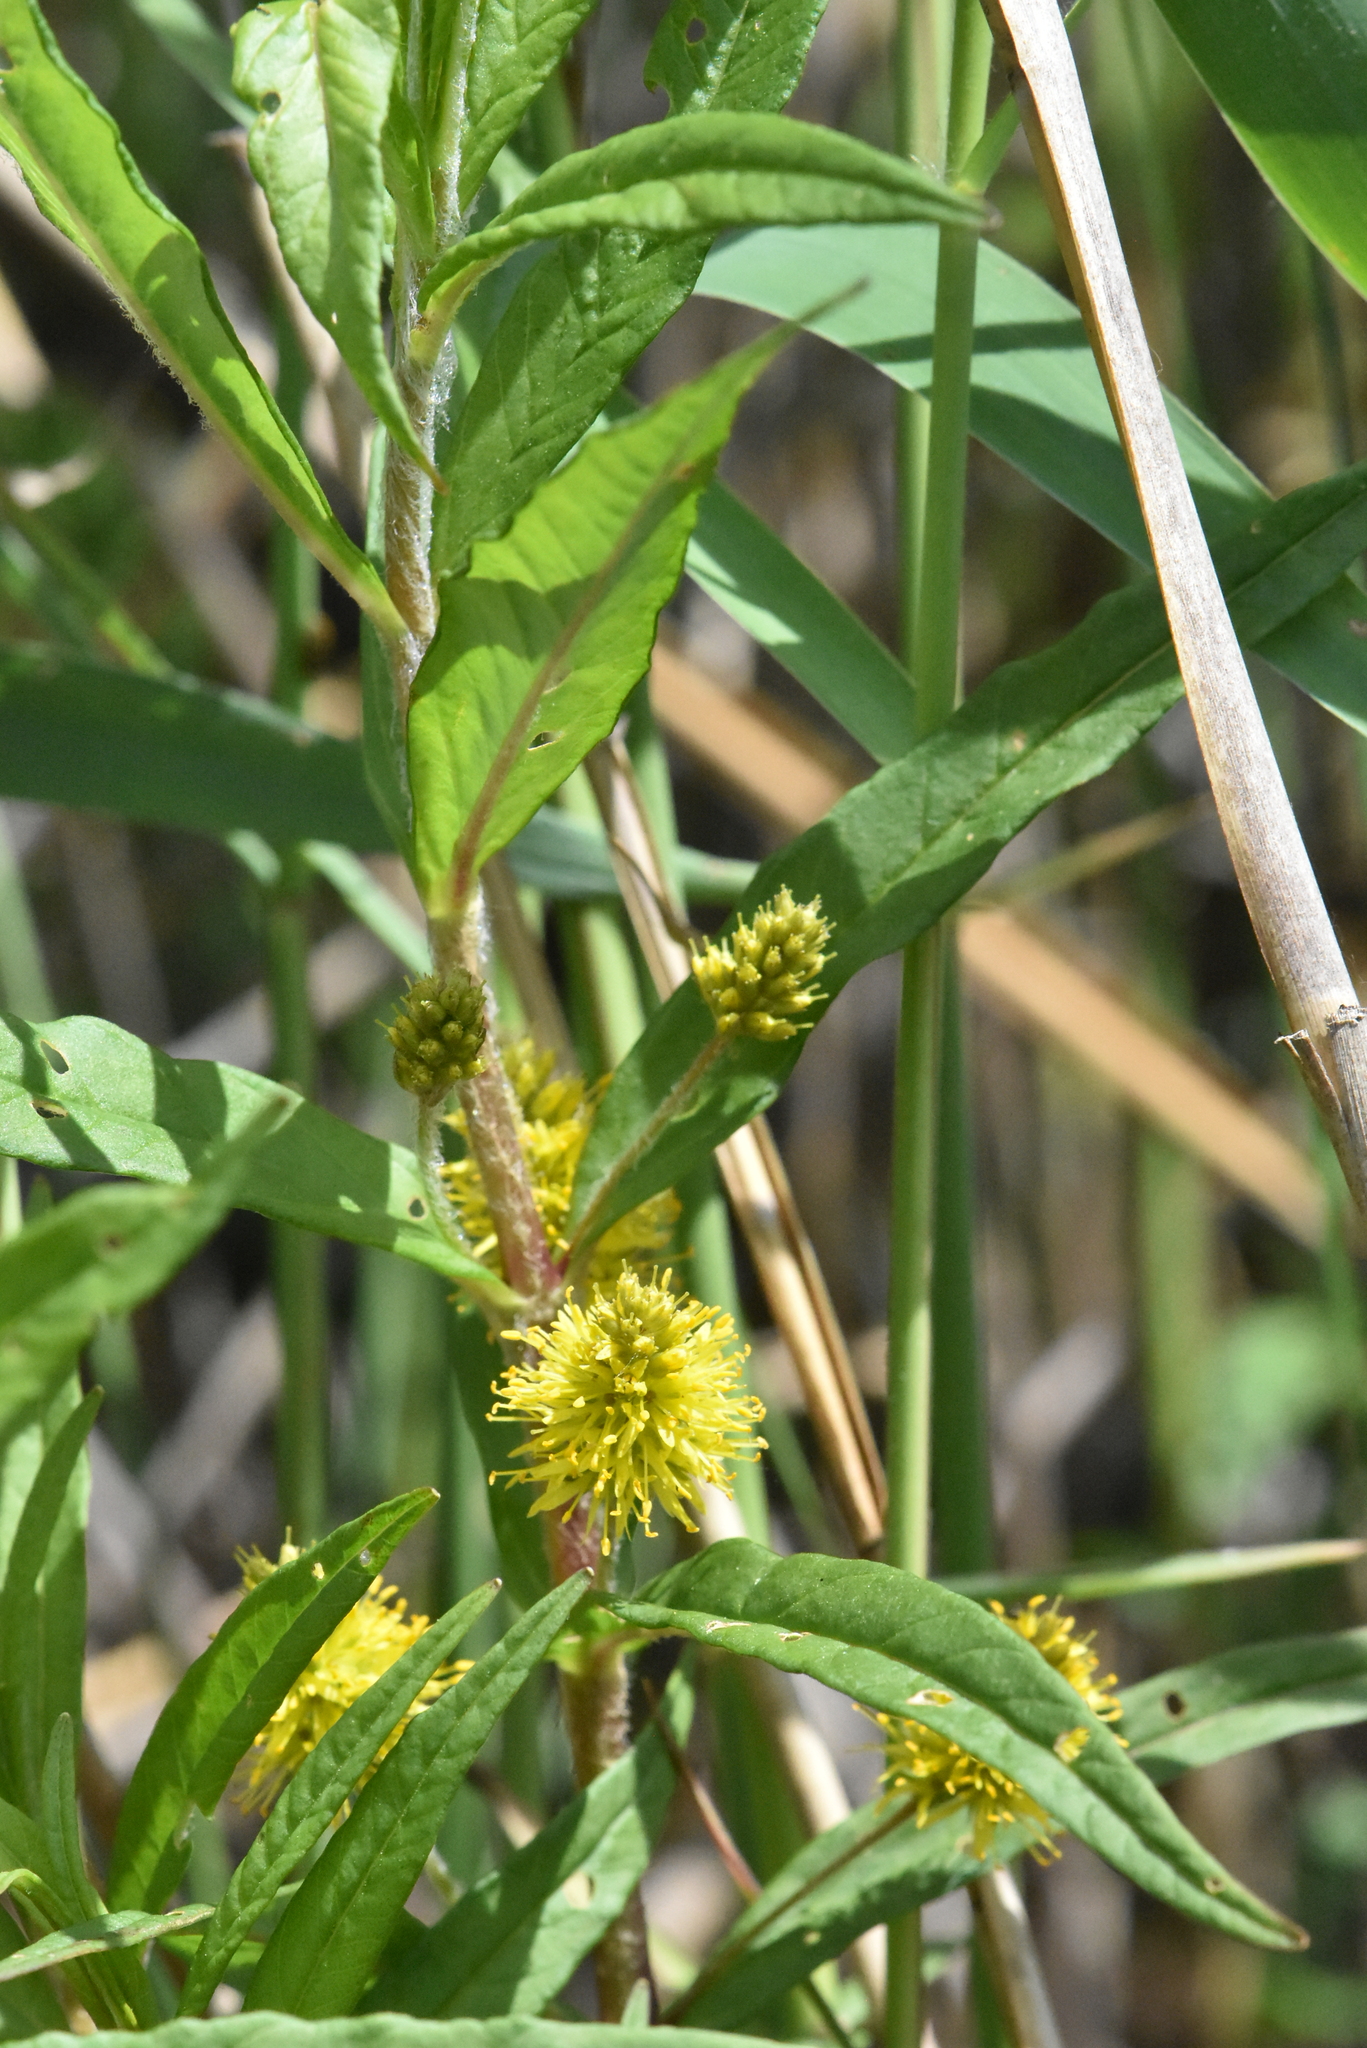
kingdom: Plantae
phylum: Tracheophyta
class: Magnoliopsida
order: Ericales
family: Primulaceae
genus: Lysimachia
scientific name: Lysimachia thyrsiflora
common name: Tufted loosestrife
